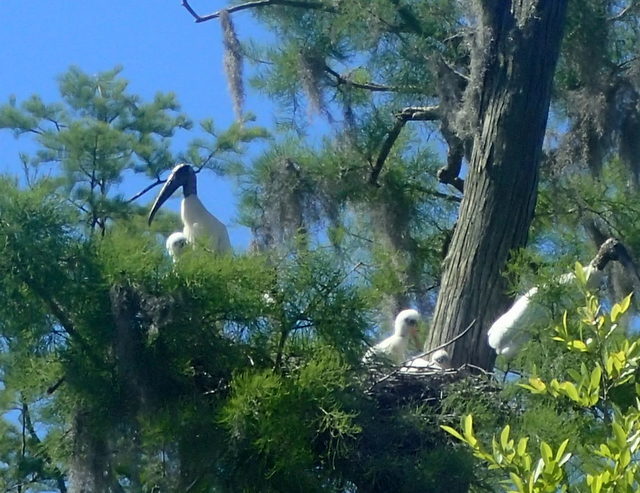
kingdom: Animalia
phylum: Chordata
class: Aves
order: Ciconiiformes
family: Ciconiidae
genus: Mycteria
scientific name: Mycteria americana
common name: Wood stork
